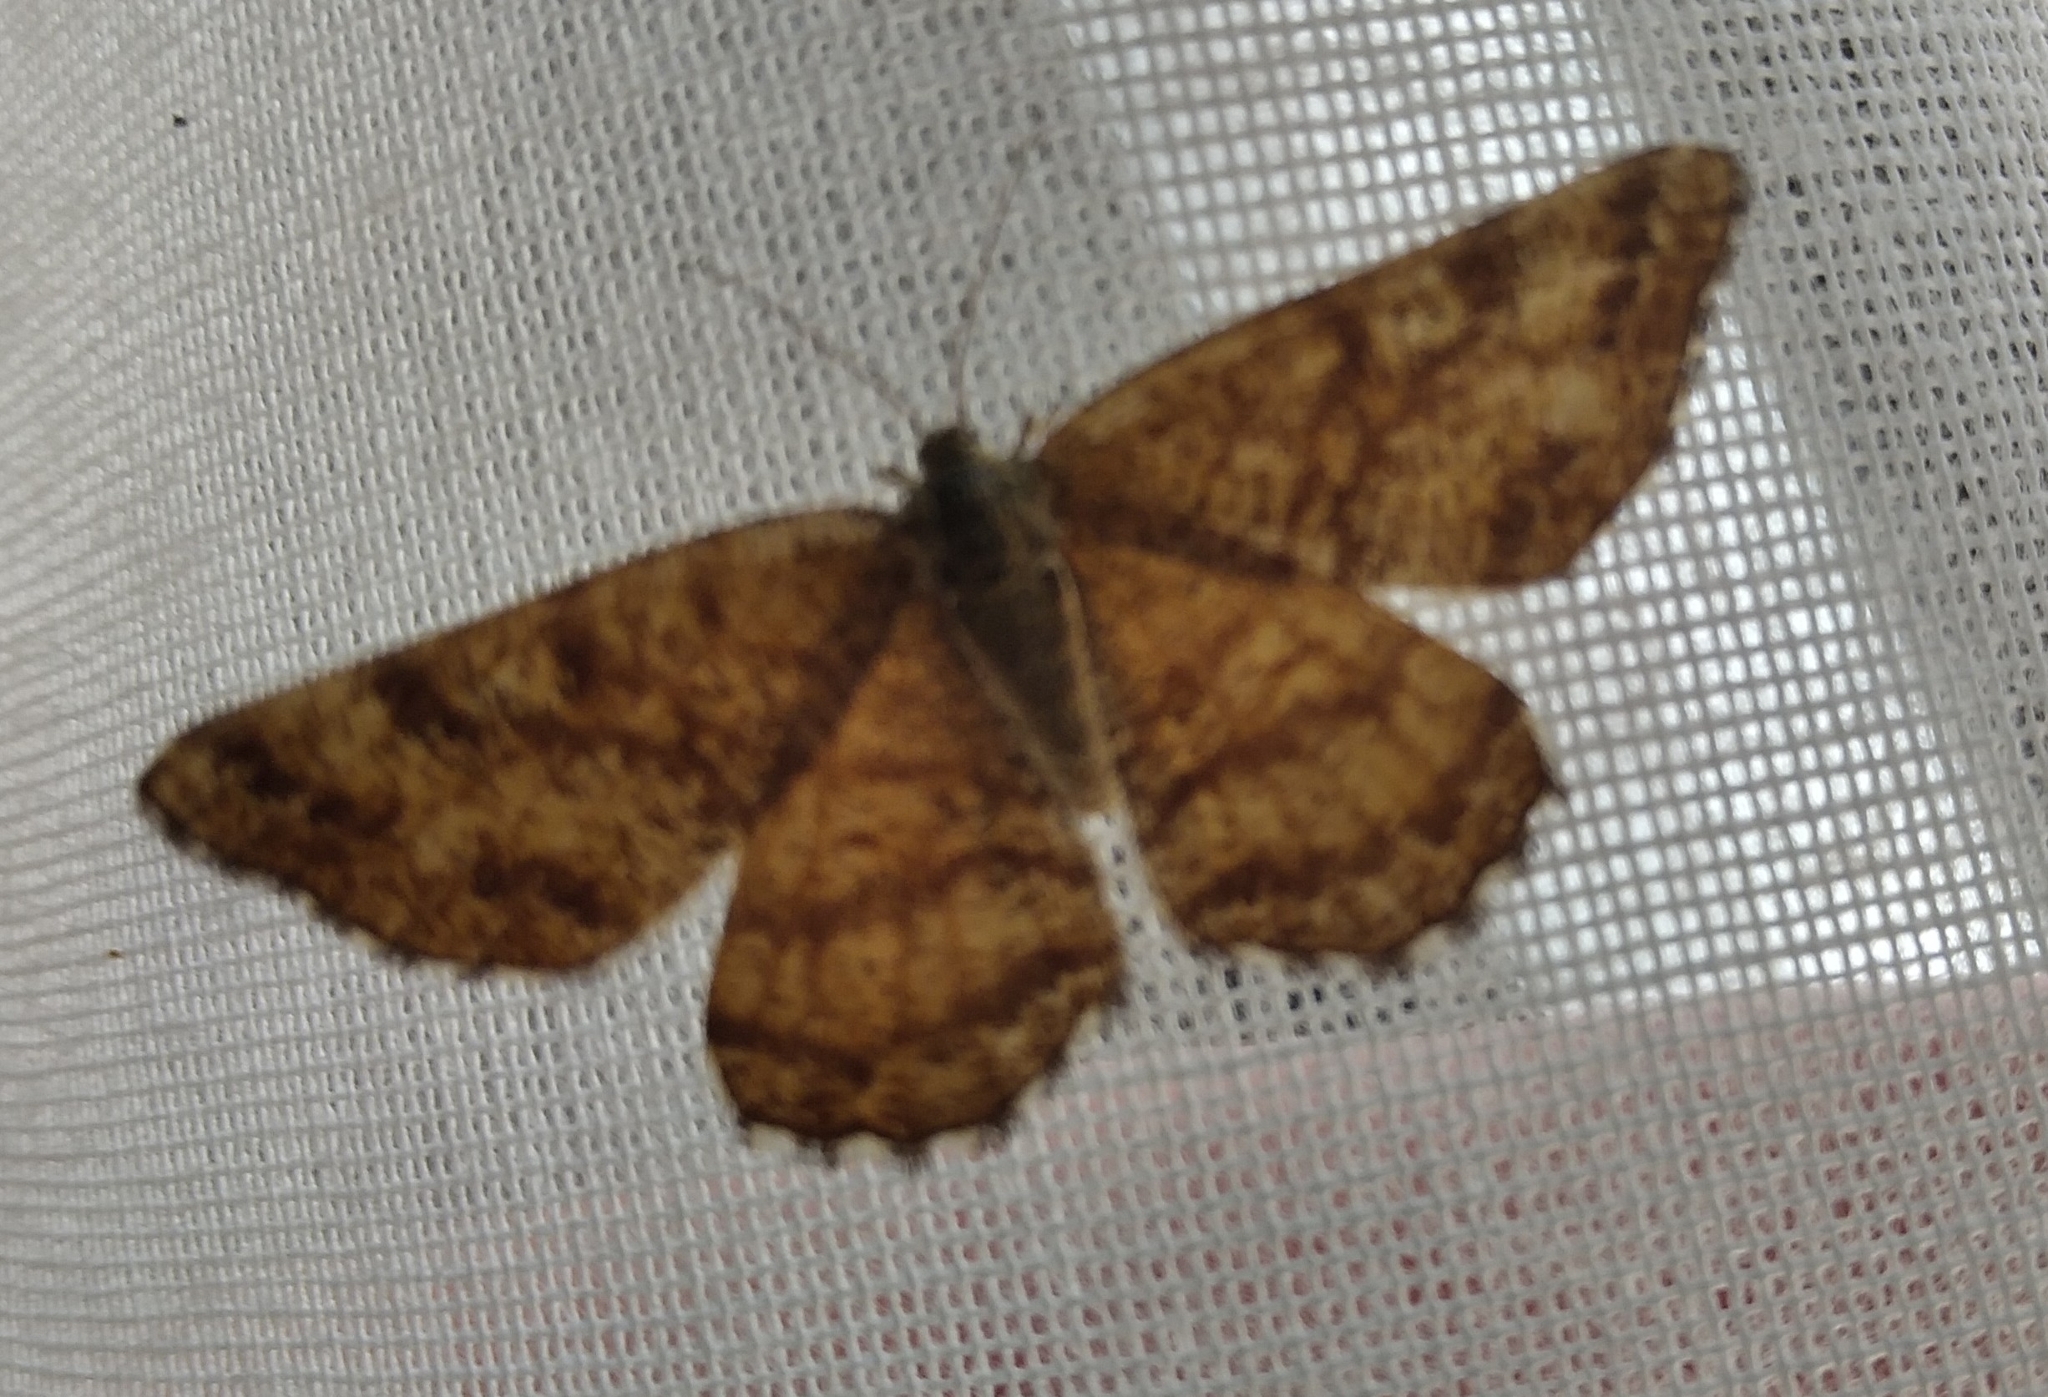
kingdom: Animalia
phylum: Arthropoda
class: Insecta
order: Lepidoptera
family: Geometridae
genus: Ematurga
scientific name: Ematurga atomaria
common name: Common heath
